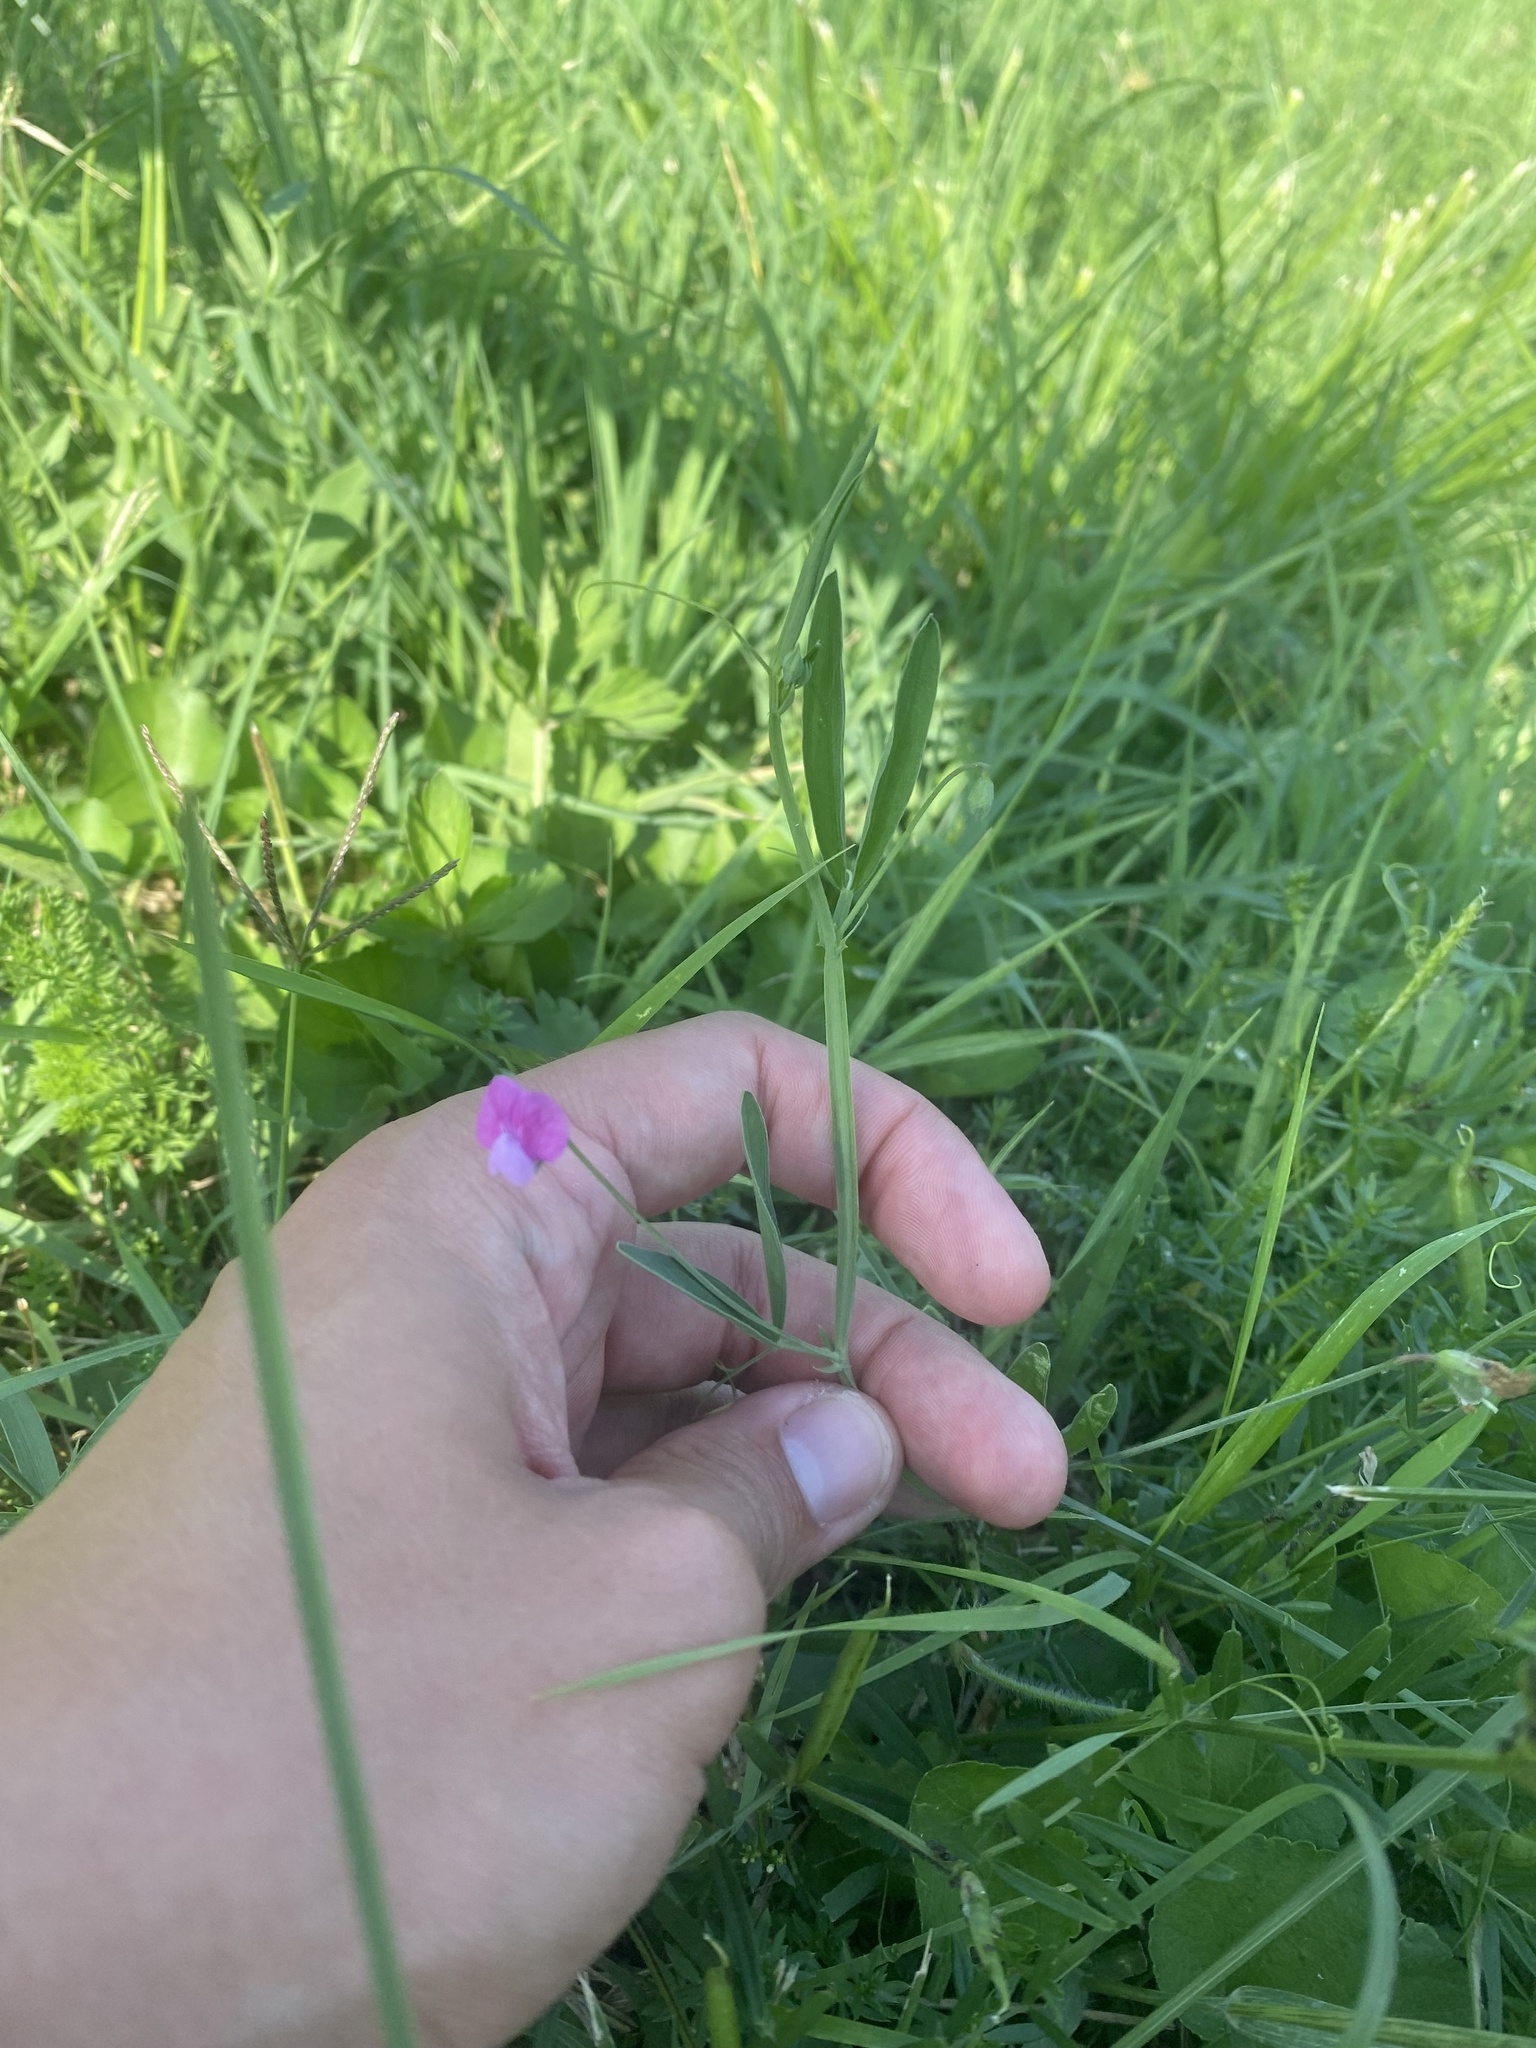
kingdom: Plantae
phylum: Tracheophyta
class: Magnoliopsida
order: Fabales
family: Fabaceae
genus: Lathyrus
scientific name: Lathyrus hirsutus
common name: Hairy vetchling
